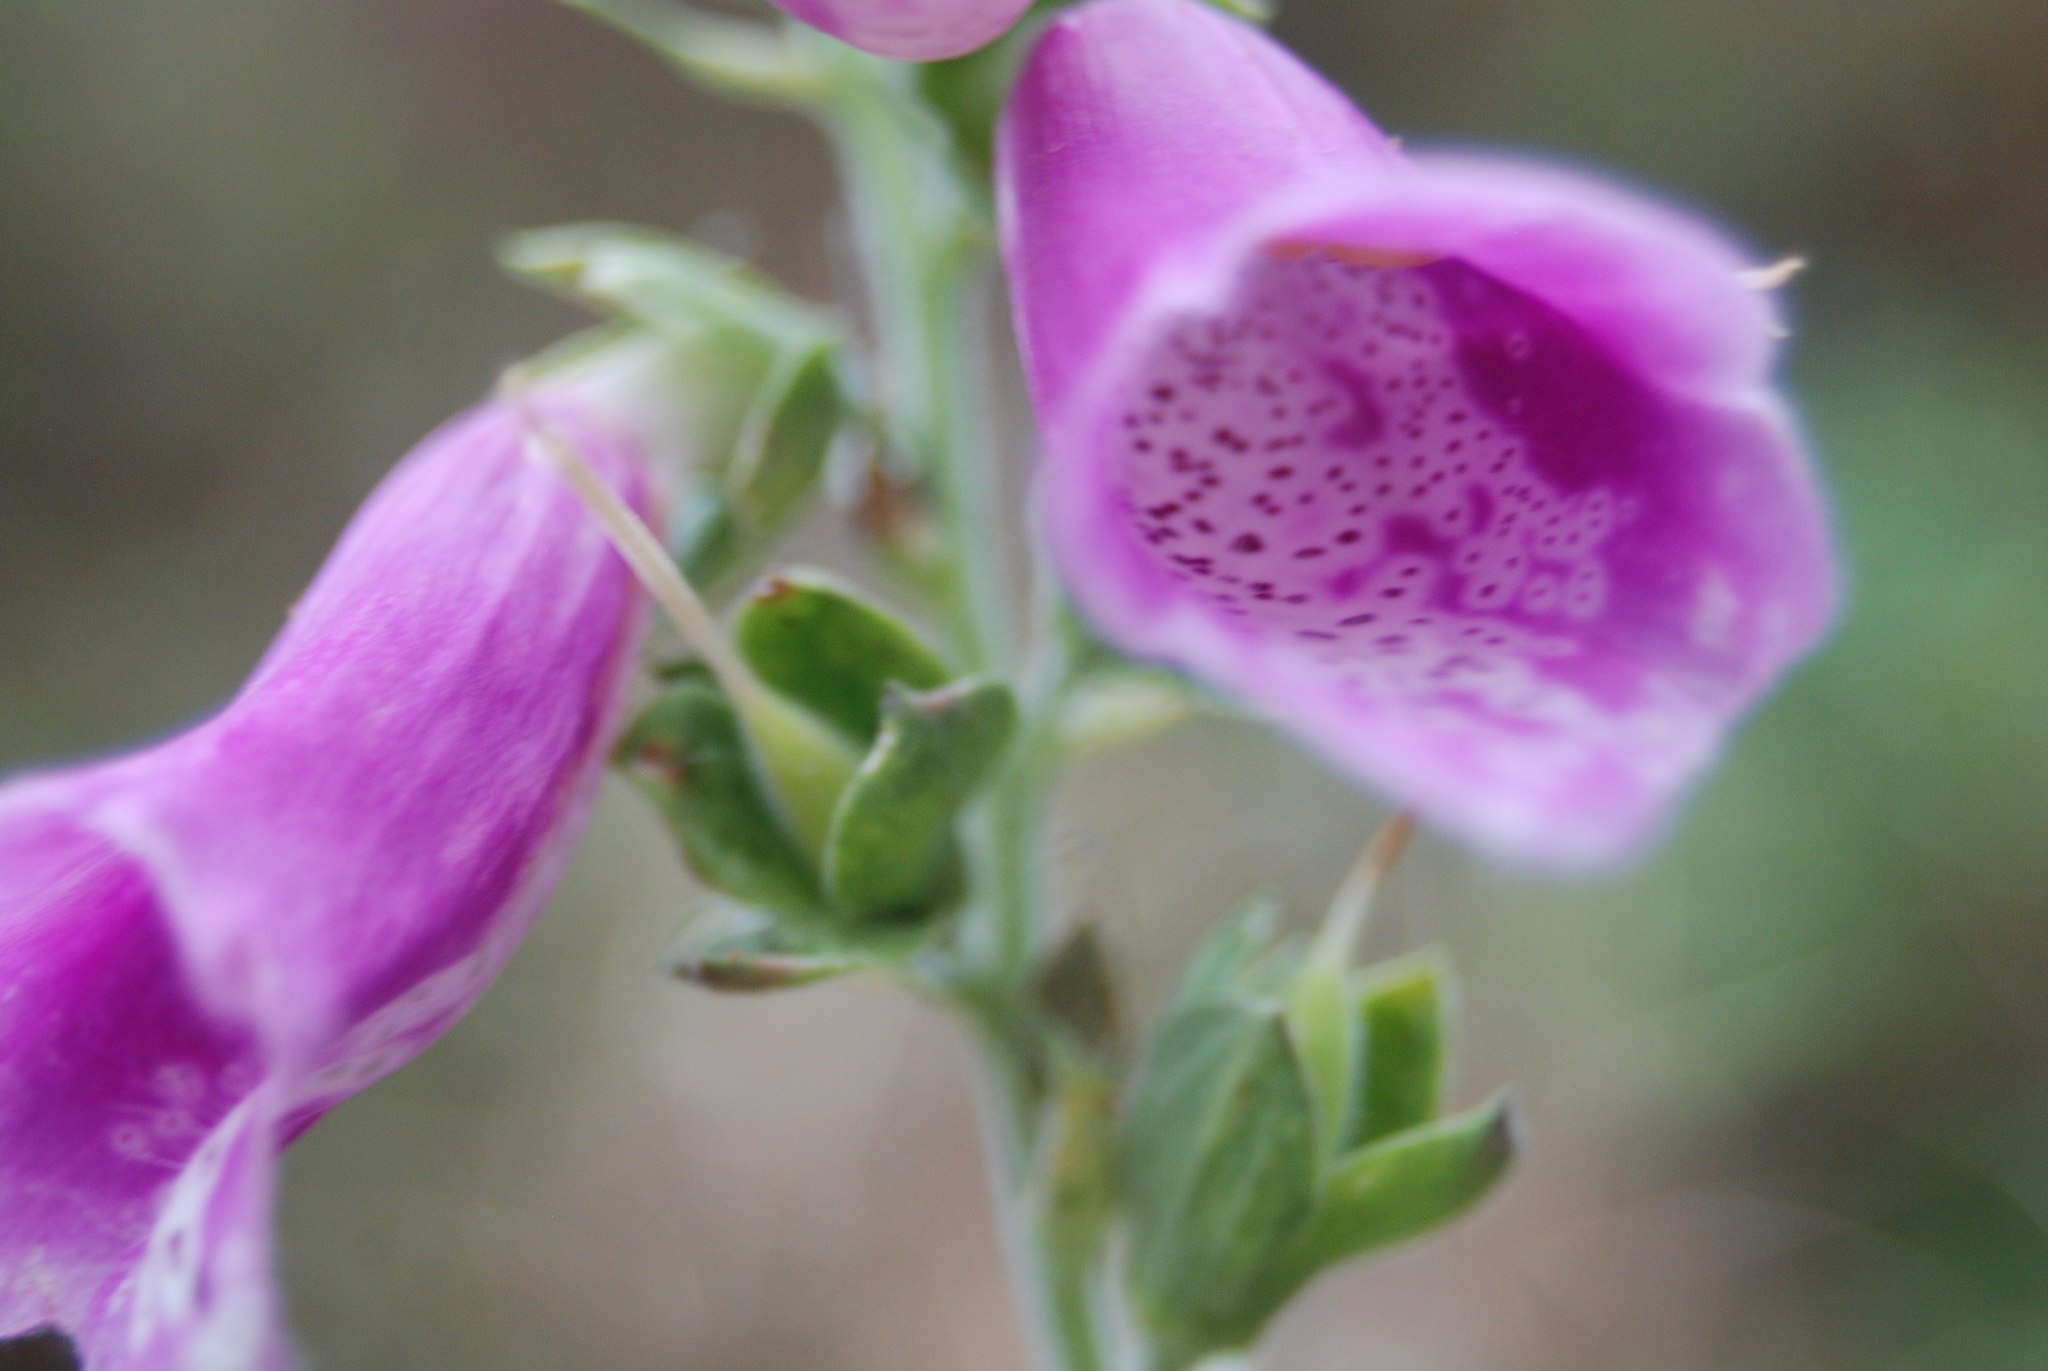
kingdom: Plantae
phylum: Tracheophyta
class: Magnoliopsida
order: Lamiales
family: Plantaginaceae
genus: Digitalis
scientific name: Digitalis purpurea
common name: Foxglove
